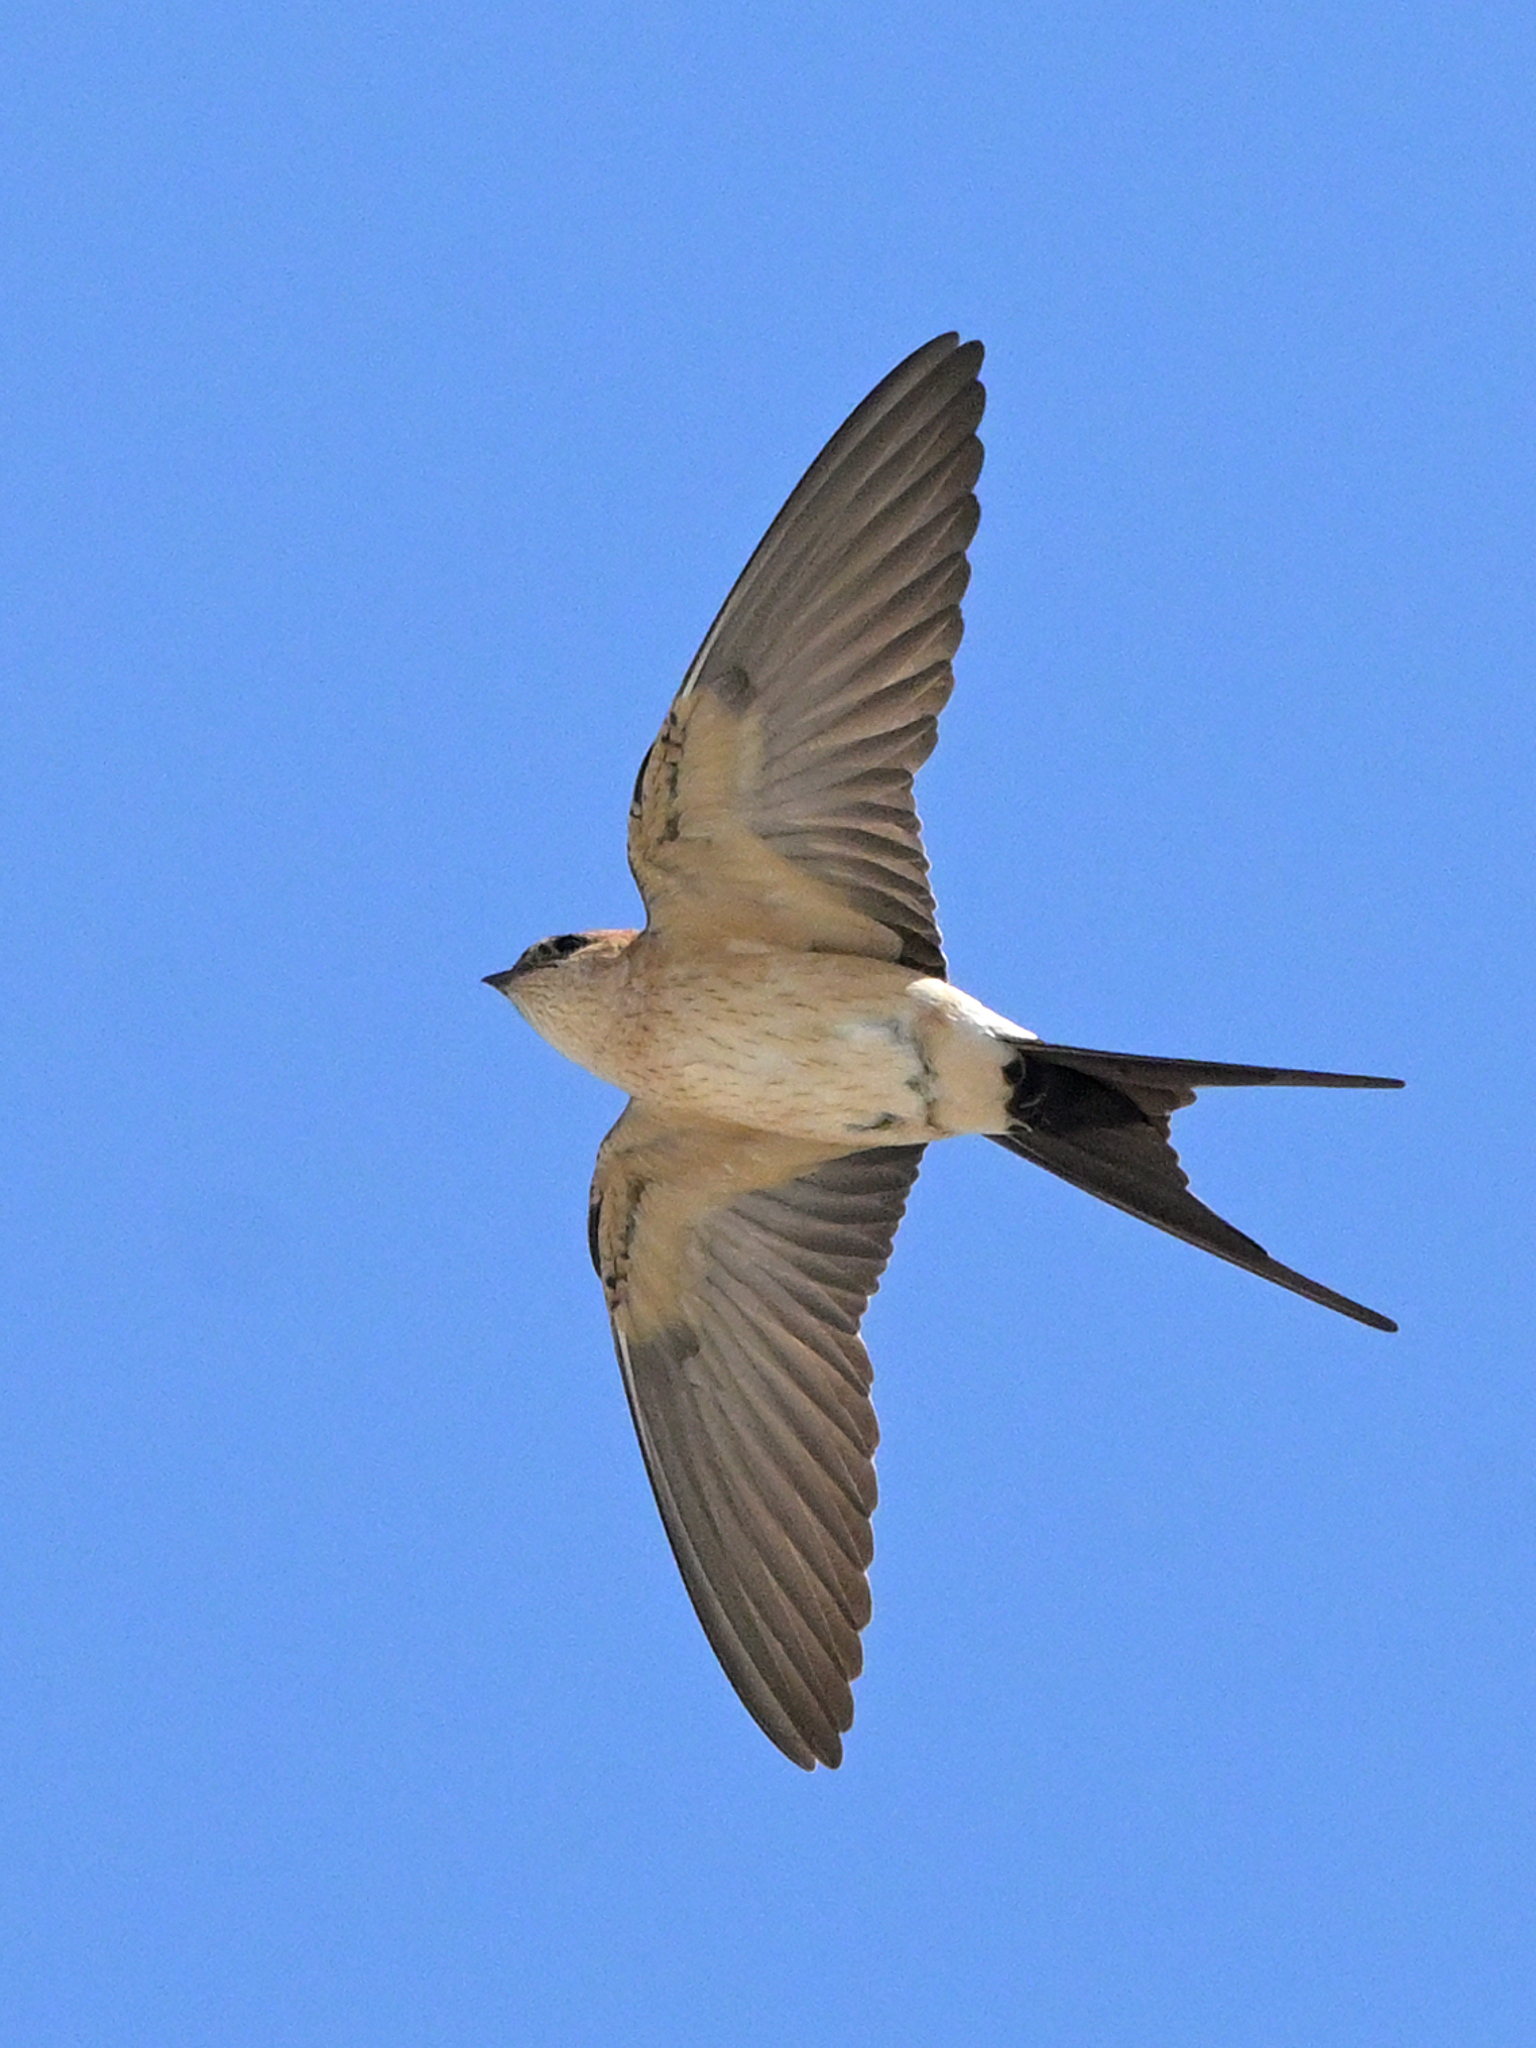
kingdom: Animalia
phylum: Chordata
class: Aves
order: Passeriformes
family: Hirundinidae
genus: Cecropis
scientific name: Cecropis daurica
